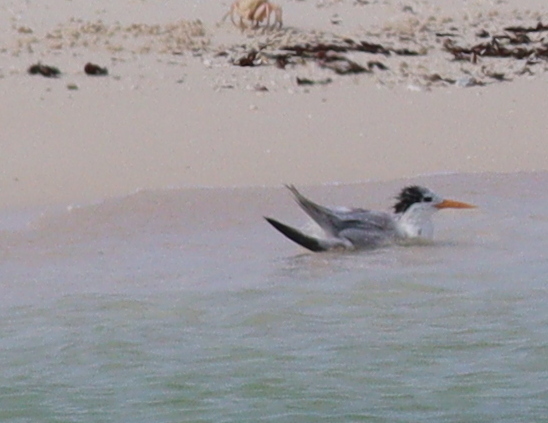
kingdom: Animalia
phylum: Chordata
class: Aves
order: Charadriiformes
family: Laridae
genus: Thalasseus
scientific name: Thalasseus bengalensis
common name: Lesser crested tern
